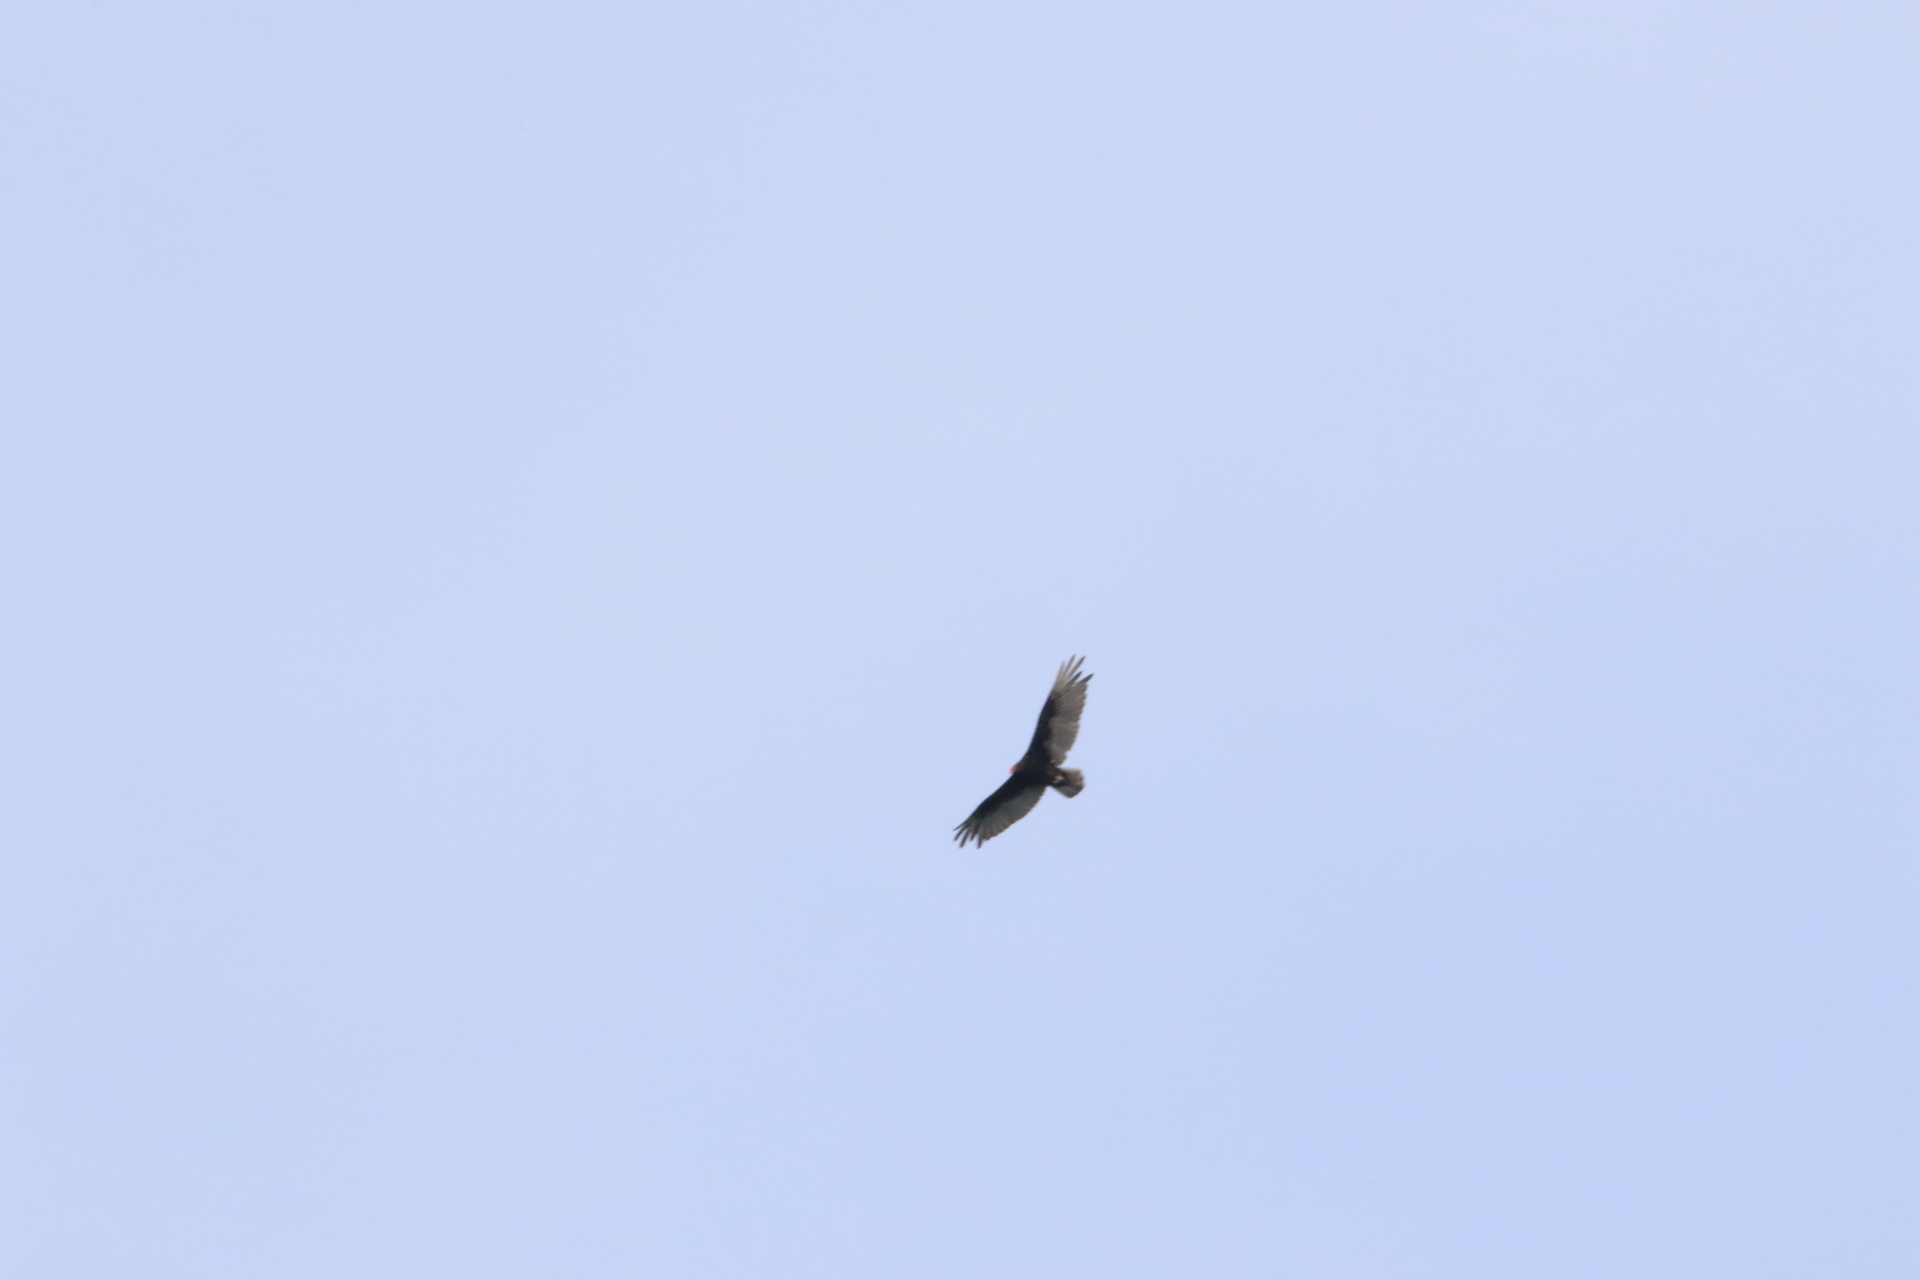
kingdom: Animalia
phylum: Chordata
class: Aves
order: Accipitriformes
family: Cathartidae
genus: Cathartes
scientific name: Cathartes aura
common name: Turkey vulture
